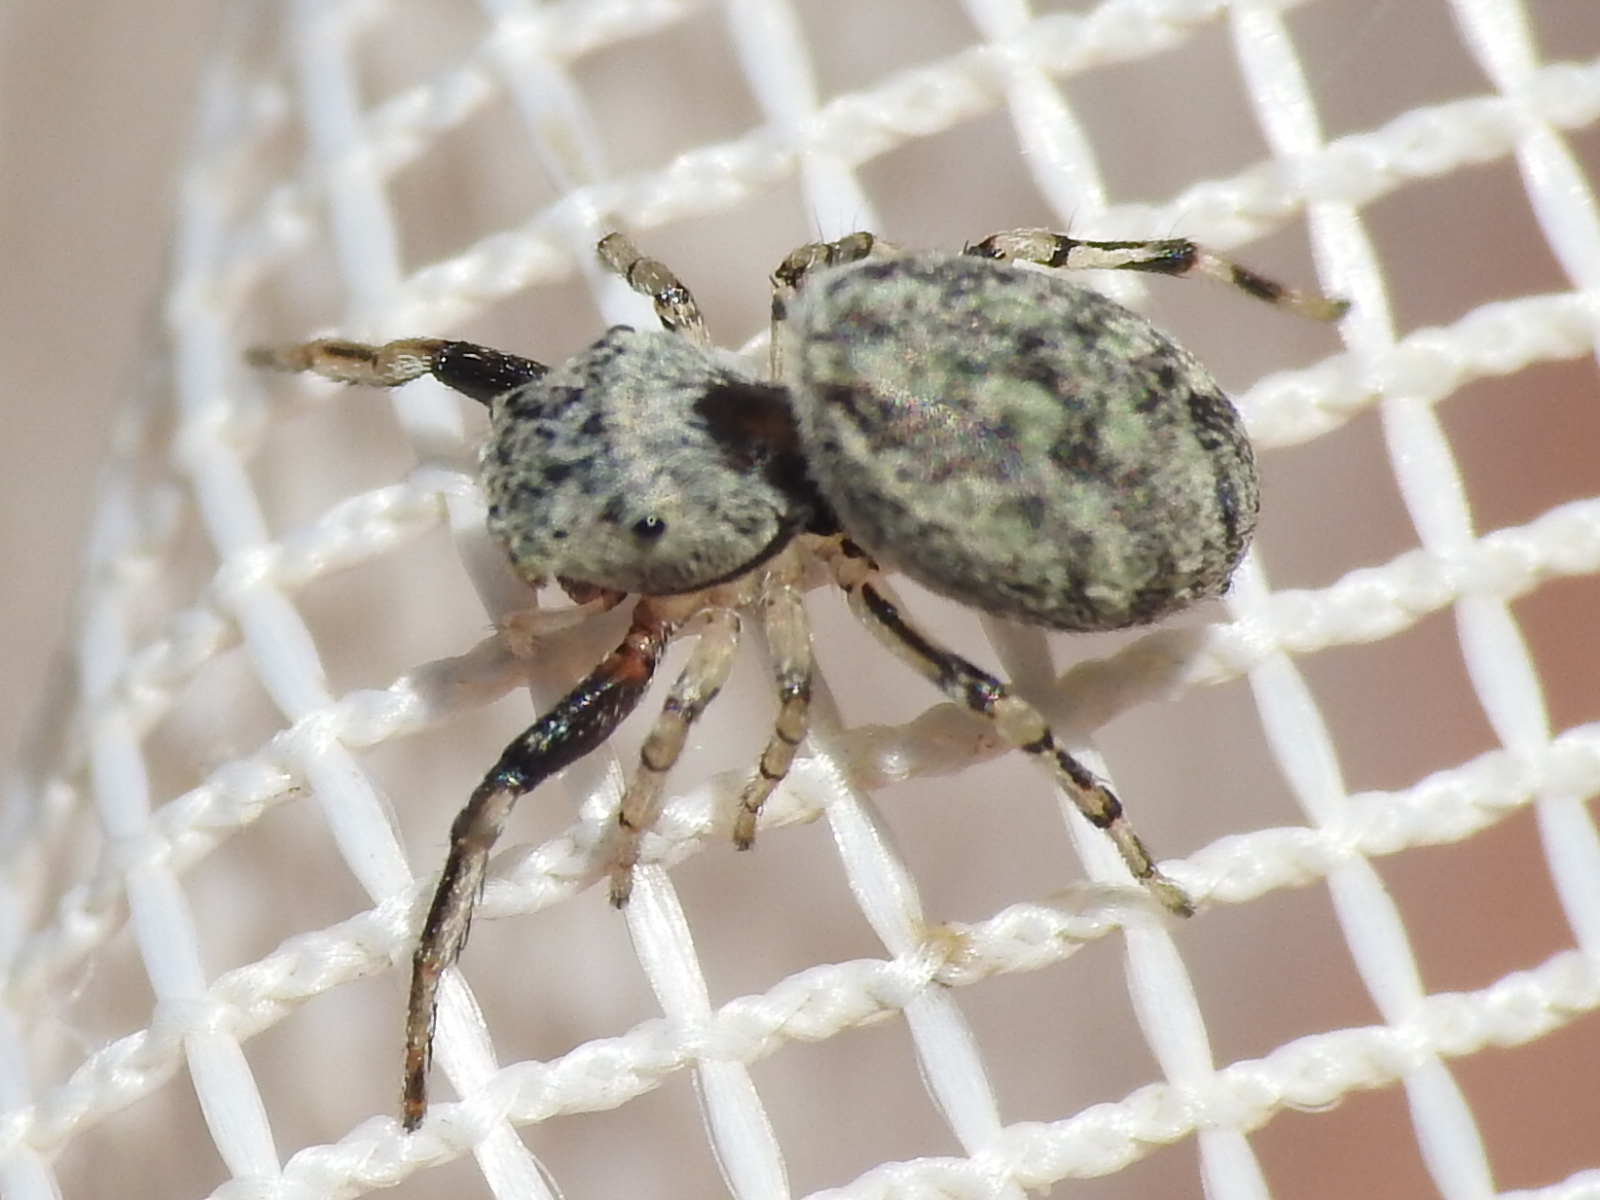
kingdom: Animalia
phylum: Arthropoda
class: Arachnida
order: Araneae
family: Salticidae
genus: Zygoballus
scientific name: Zygoballus rufipes
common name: Jumping spiders
